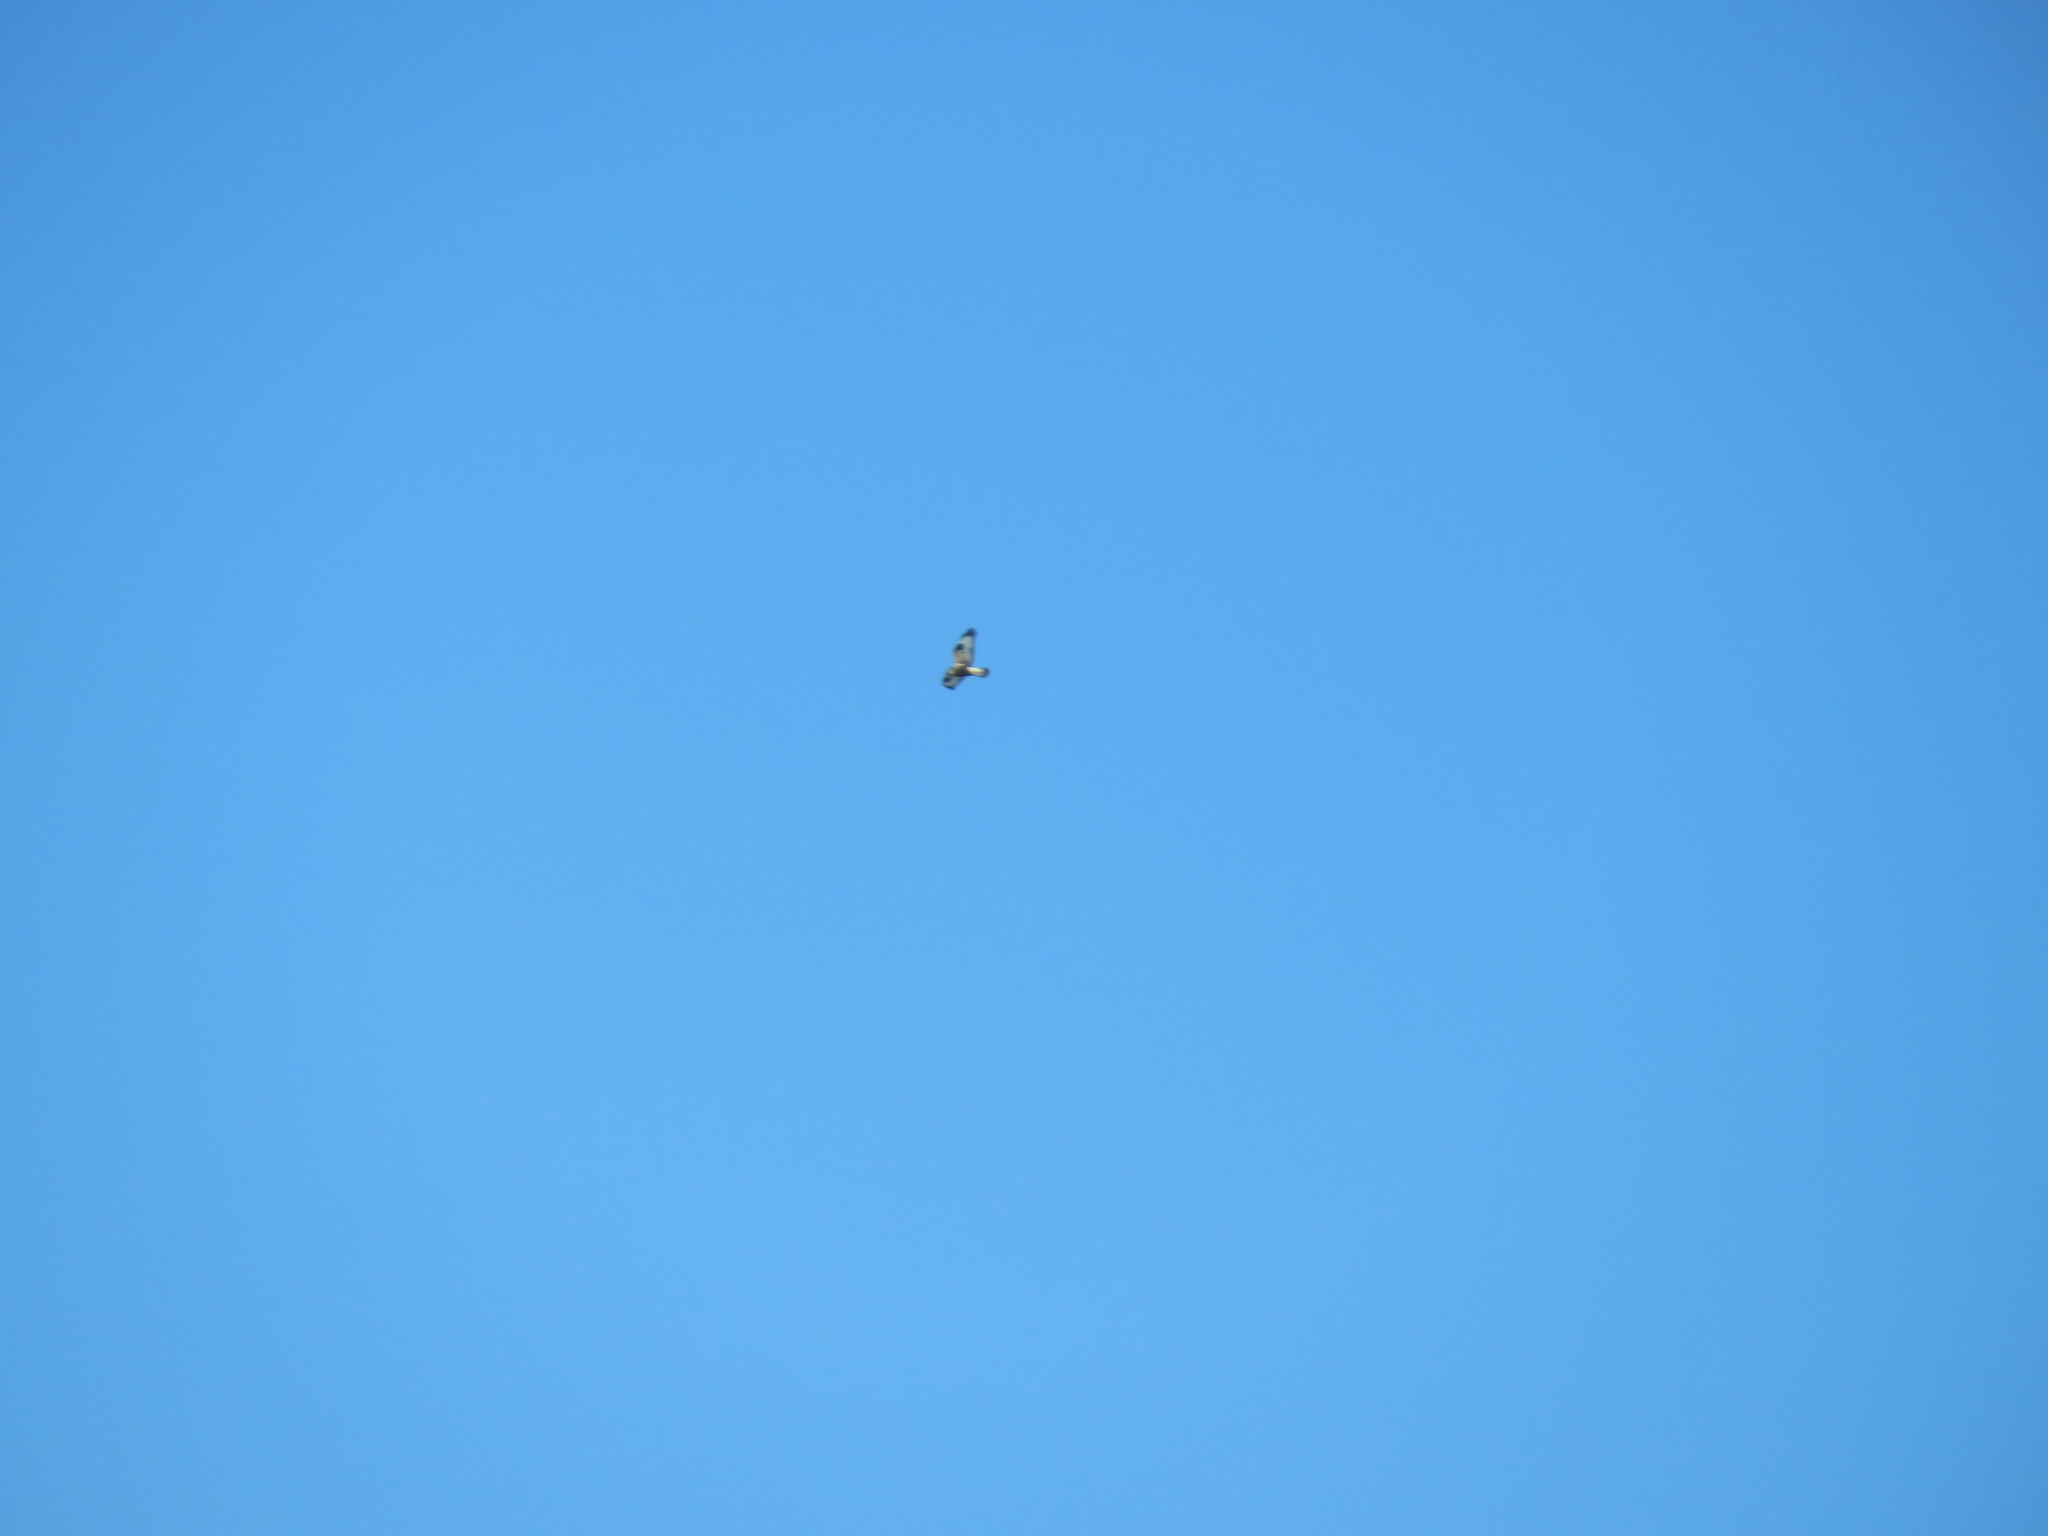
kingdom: Animalia
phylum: Chordata
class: Aves
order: Accipitriformes
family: Accipitridae
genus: Buteo
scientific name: Buteo lagopus
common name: Rough-legged buzzard
